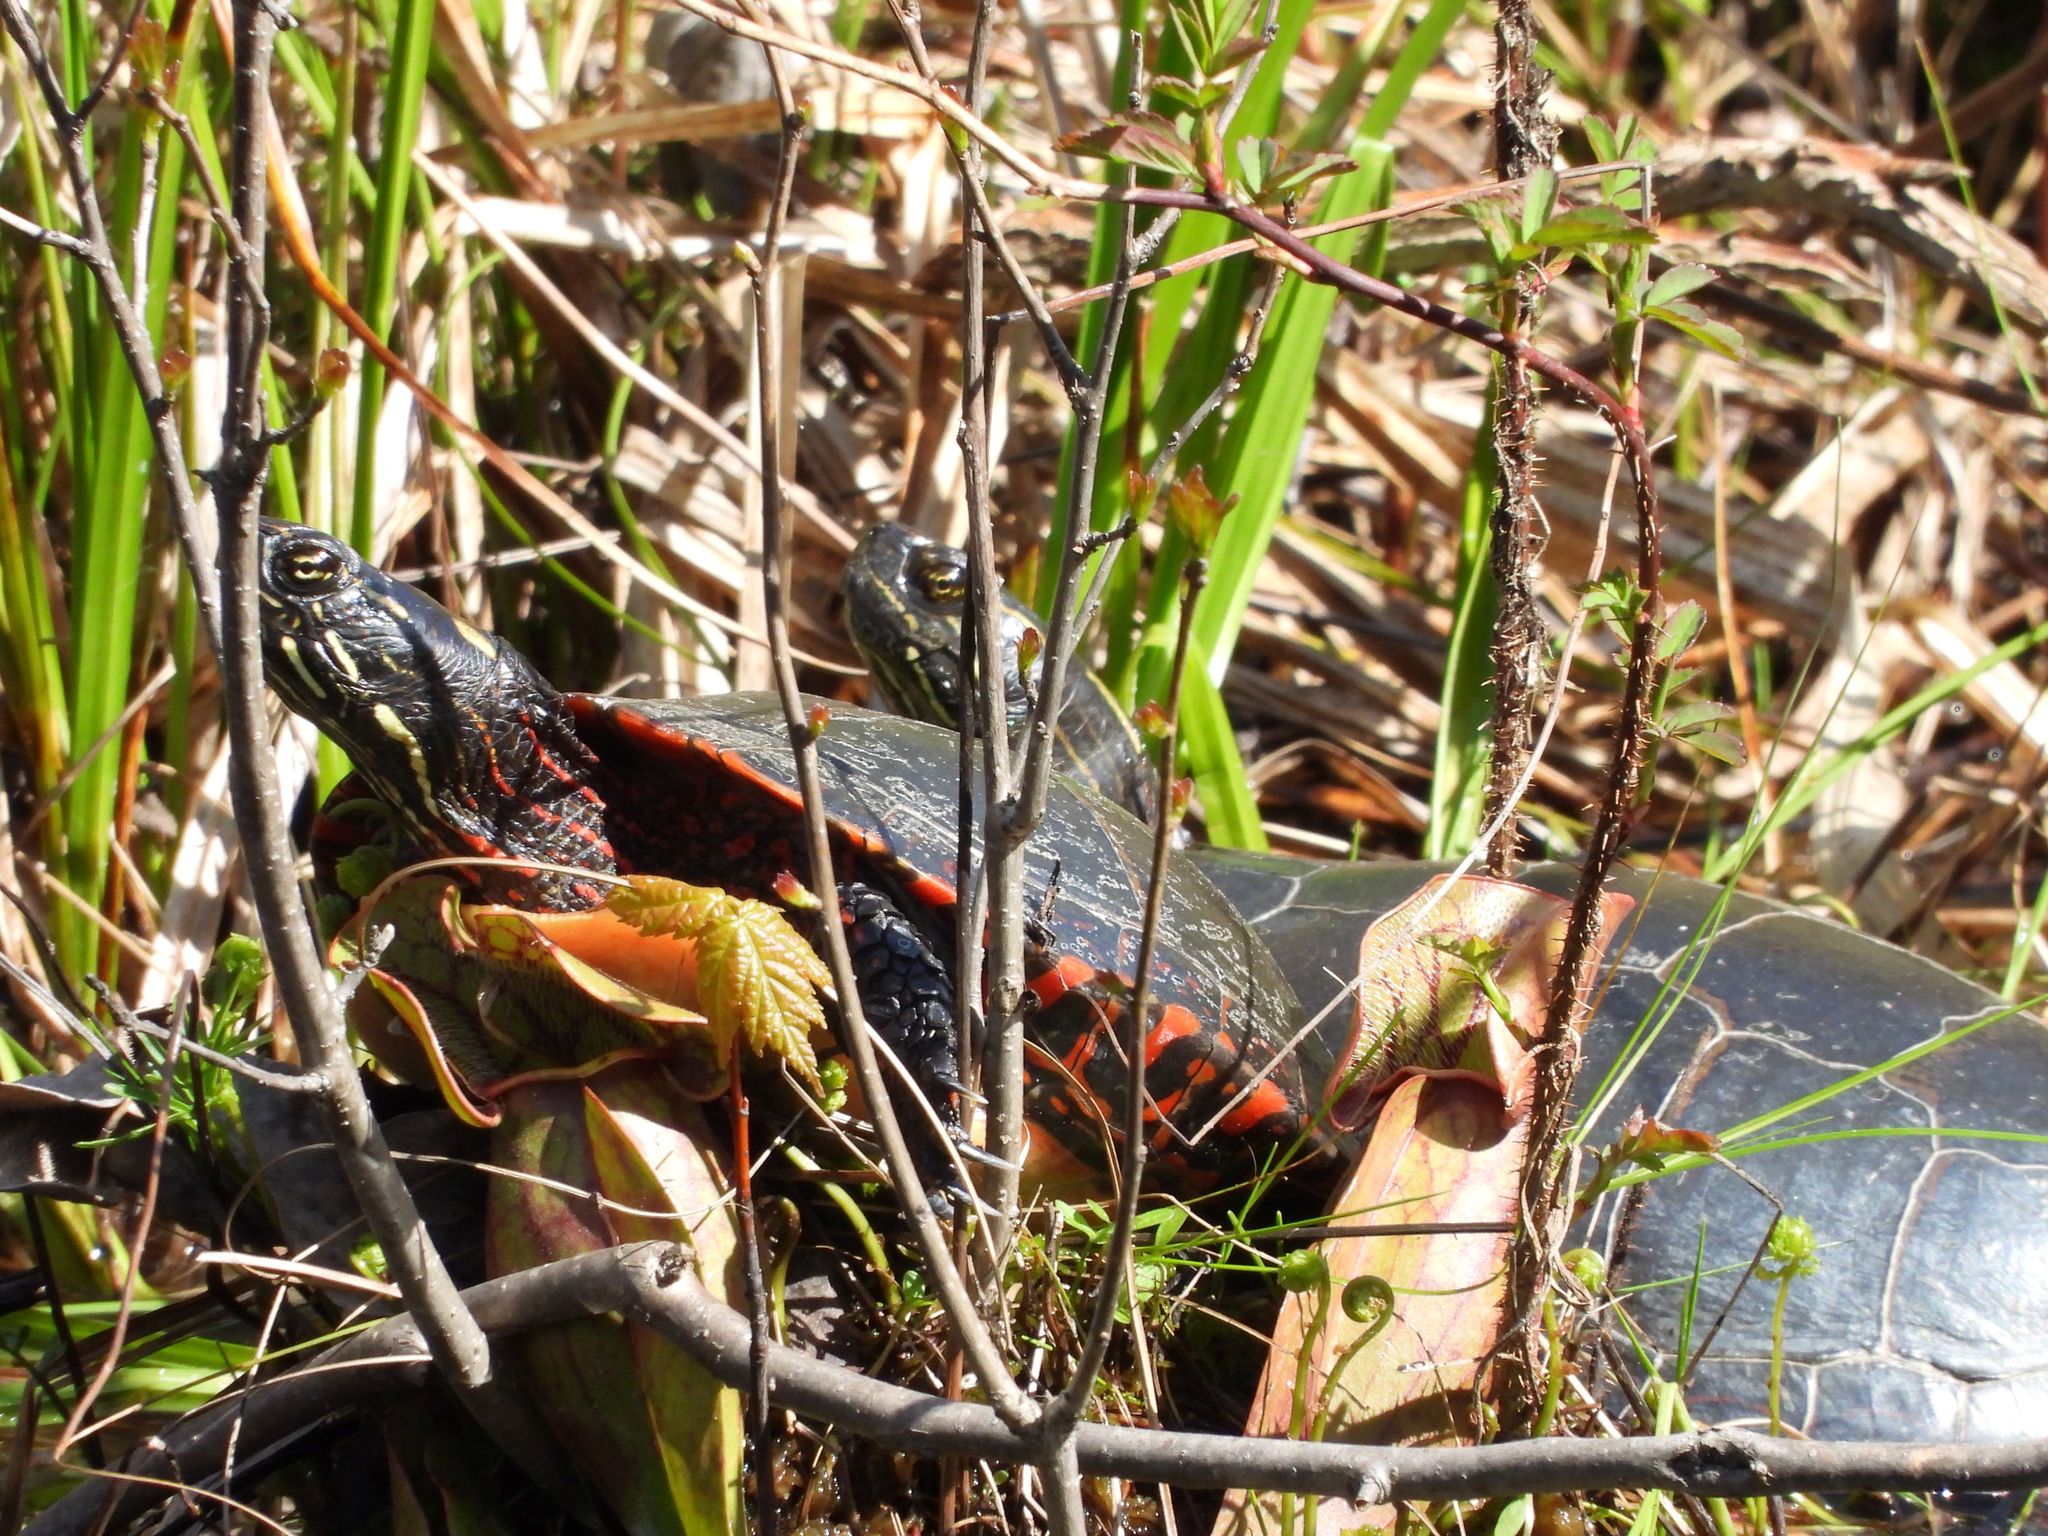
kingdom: Animalia
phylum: Chordata
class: Testudines
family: Emydidae
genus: Chrysemys
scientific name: Chrysemys picta
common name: Painted turtle
